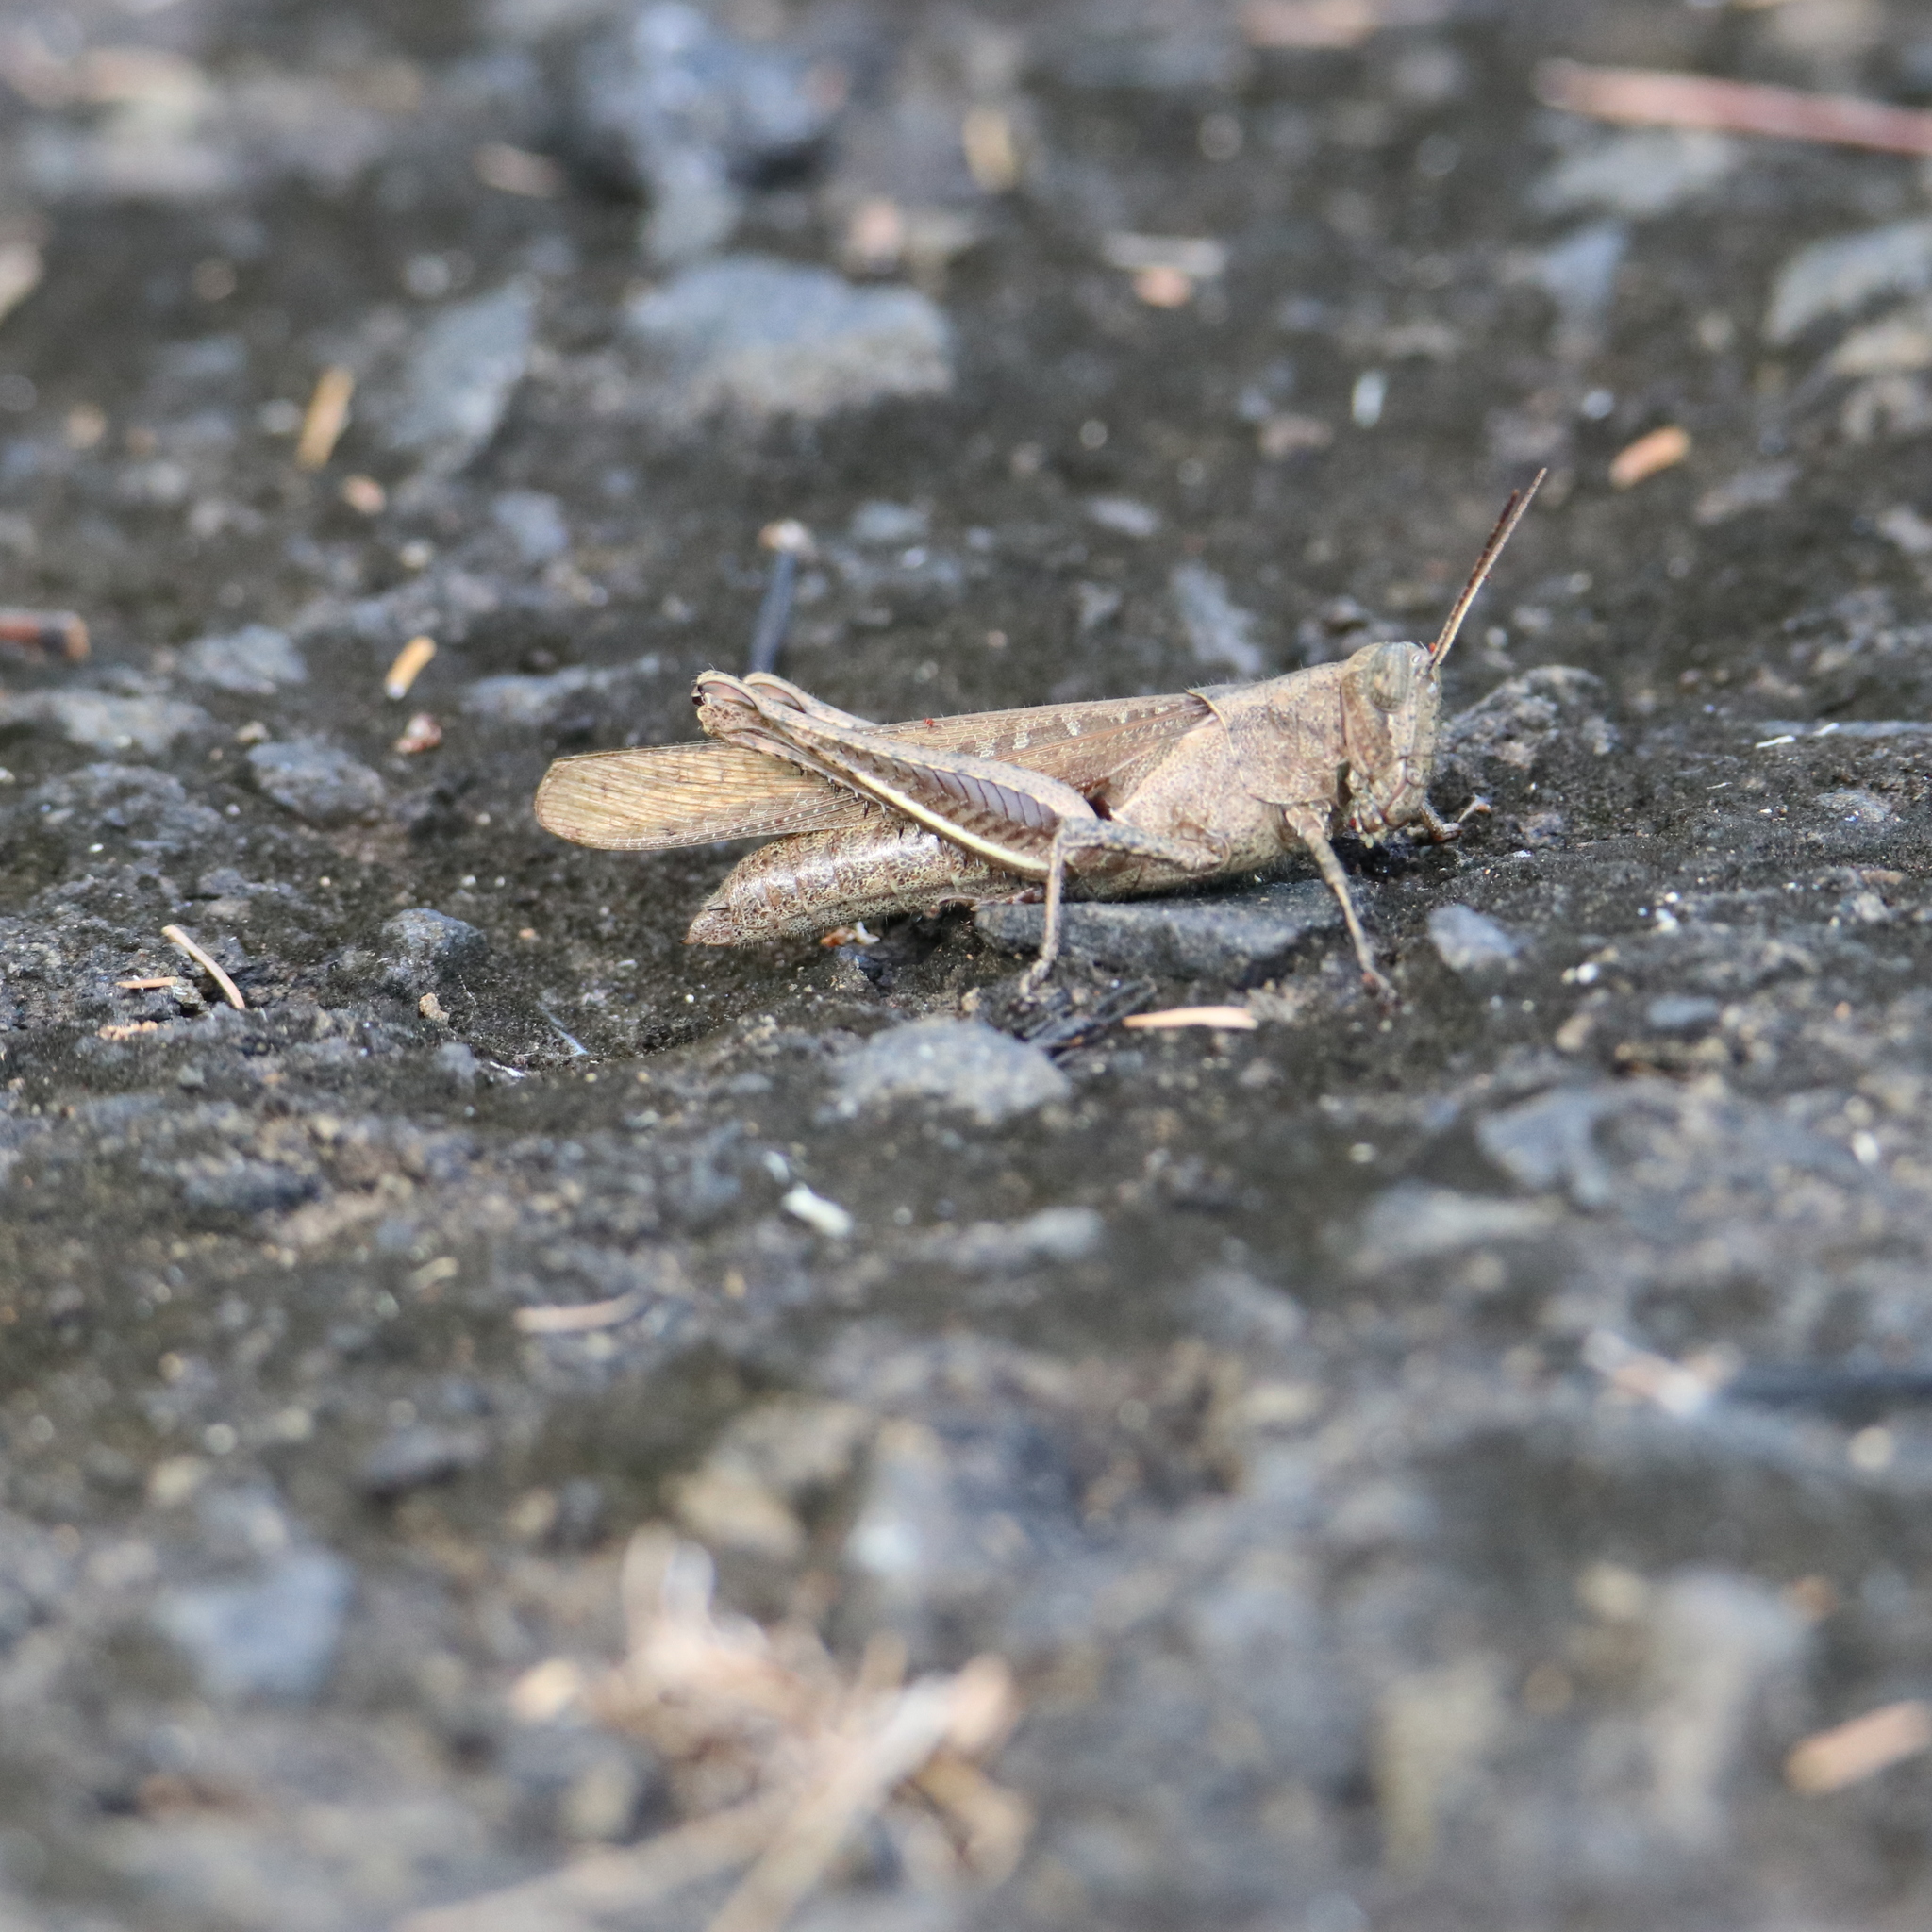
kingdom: Animalia
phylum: Arthropoda
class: Insecta
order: Orthoptera
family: Acrididae
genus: Abracris
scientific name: Abracris flavolineata
